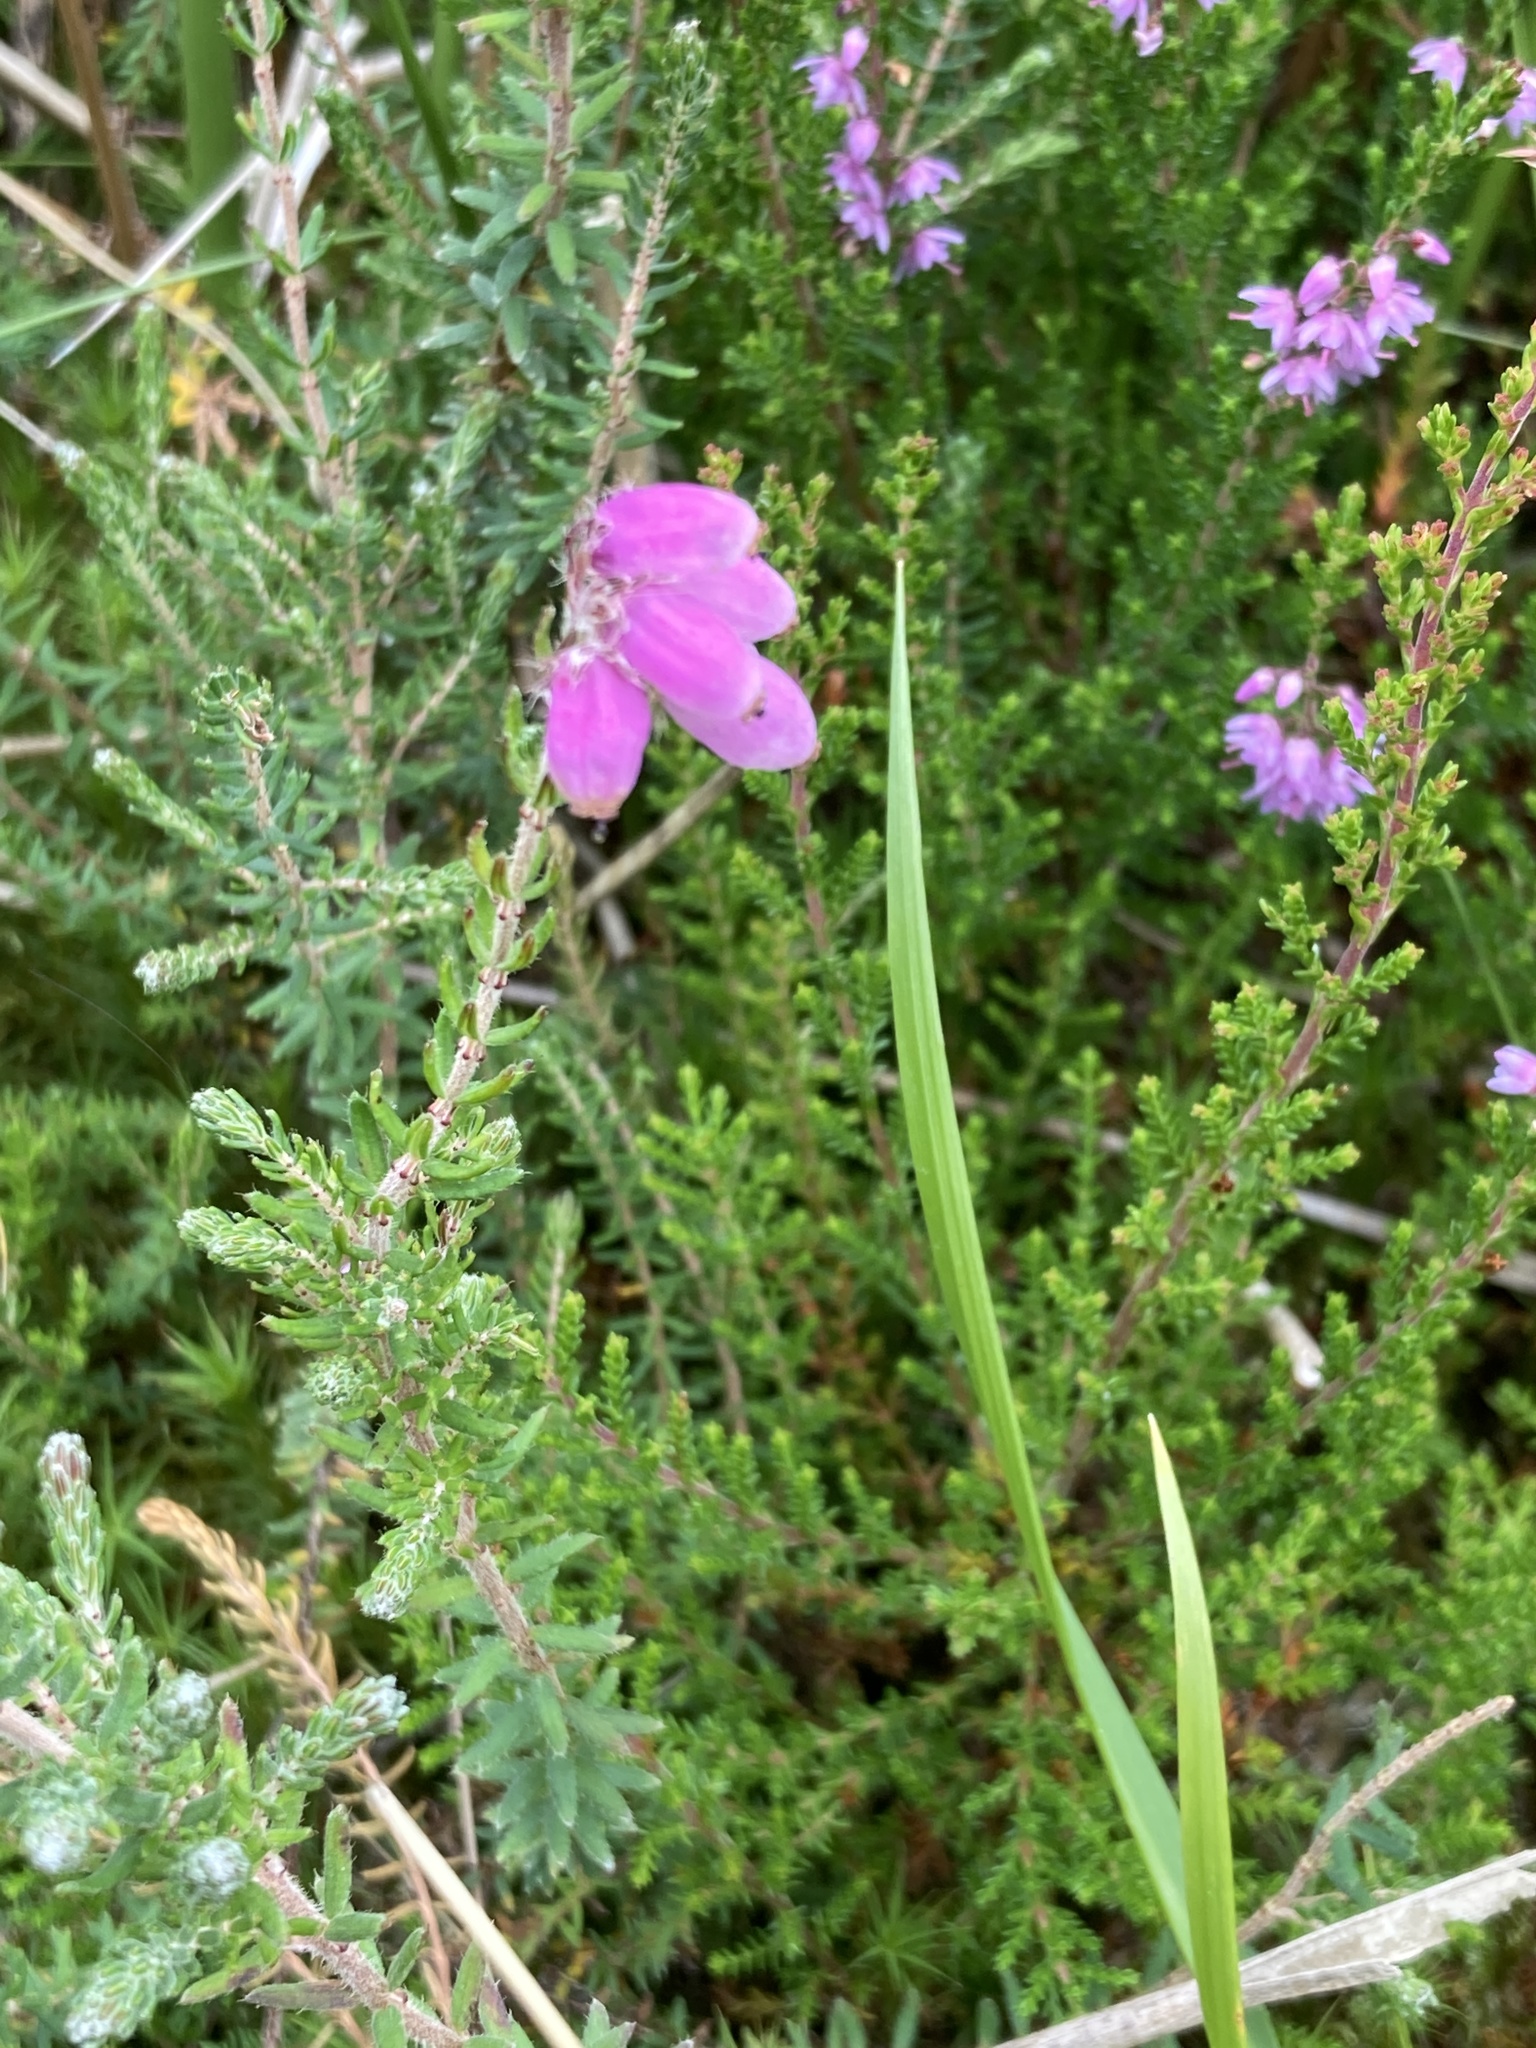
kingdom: Plantae
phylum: Tracheophyta
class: Magnoliopsida
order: Ericales
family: Ericaceae
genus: Erica
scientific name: Erica tetralix
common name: Cross-leaved heath
